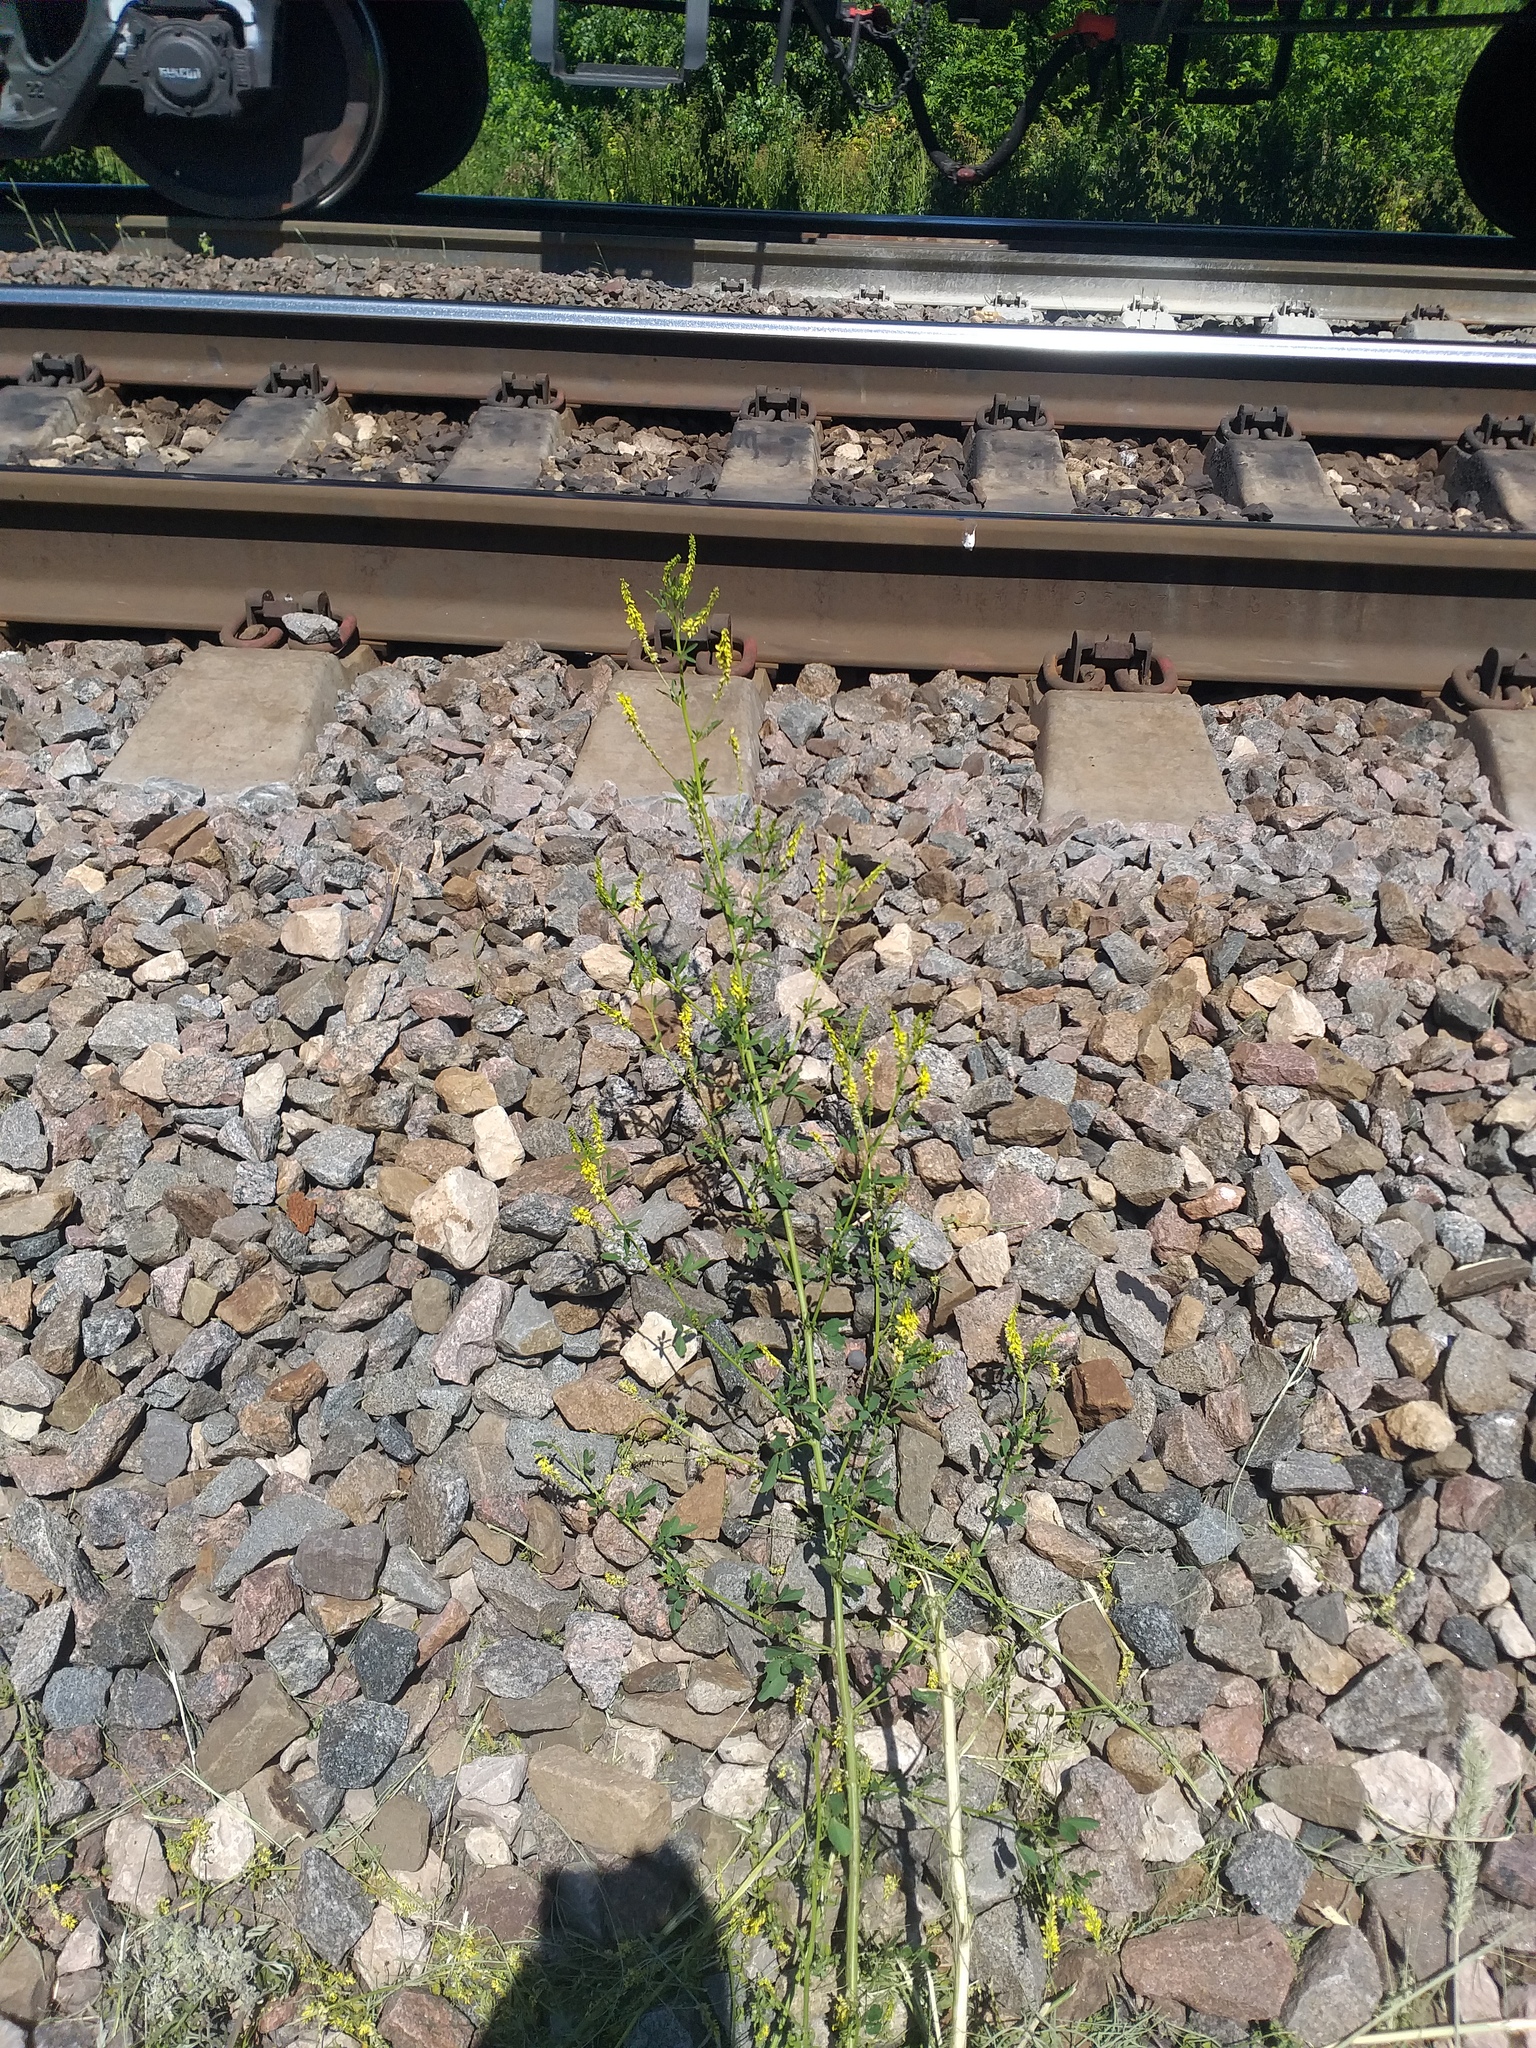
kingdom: Plantae
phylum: Tracheophyta
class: Magnoliopsida
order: Fabales
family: Fabaceae
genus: Melilotus
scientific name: Melilotus officinalis
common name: Sweetclover
